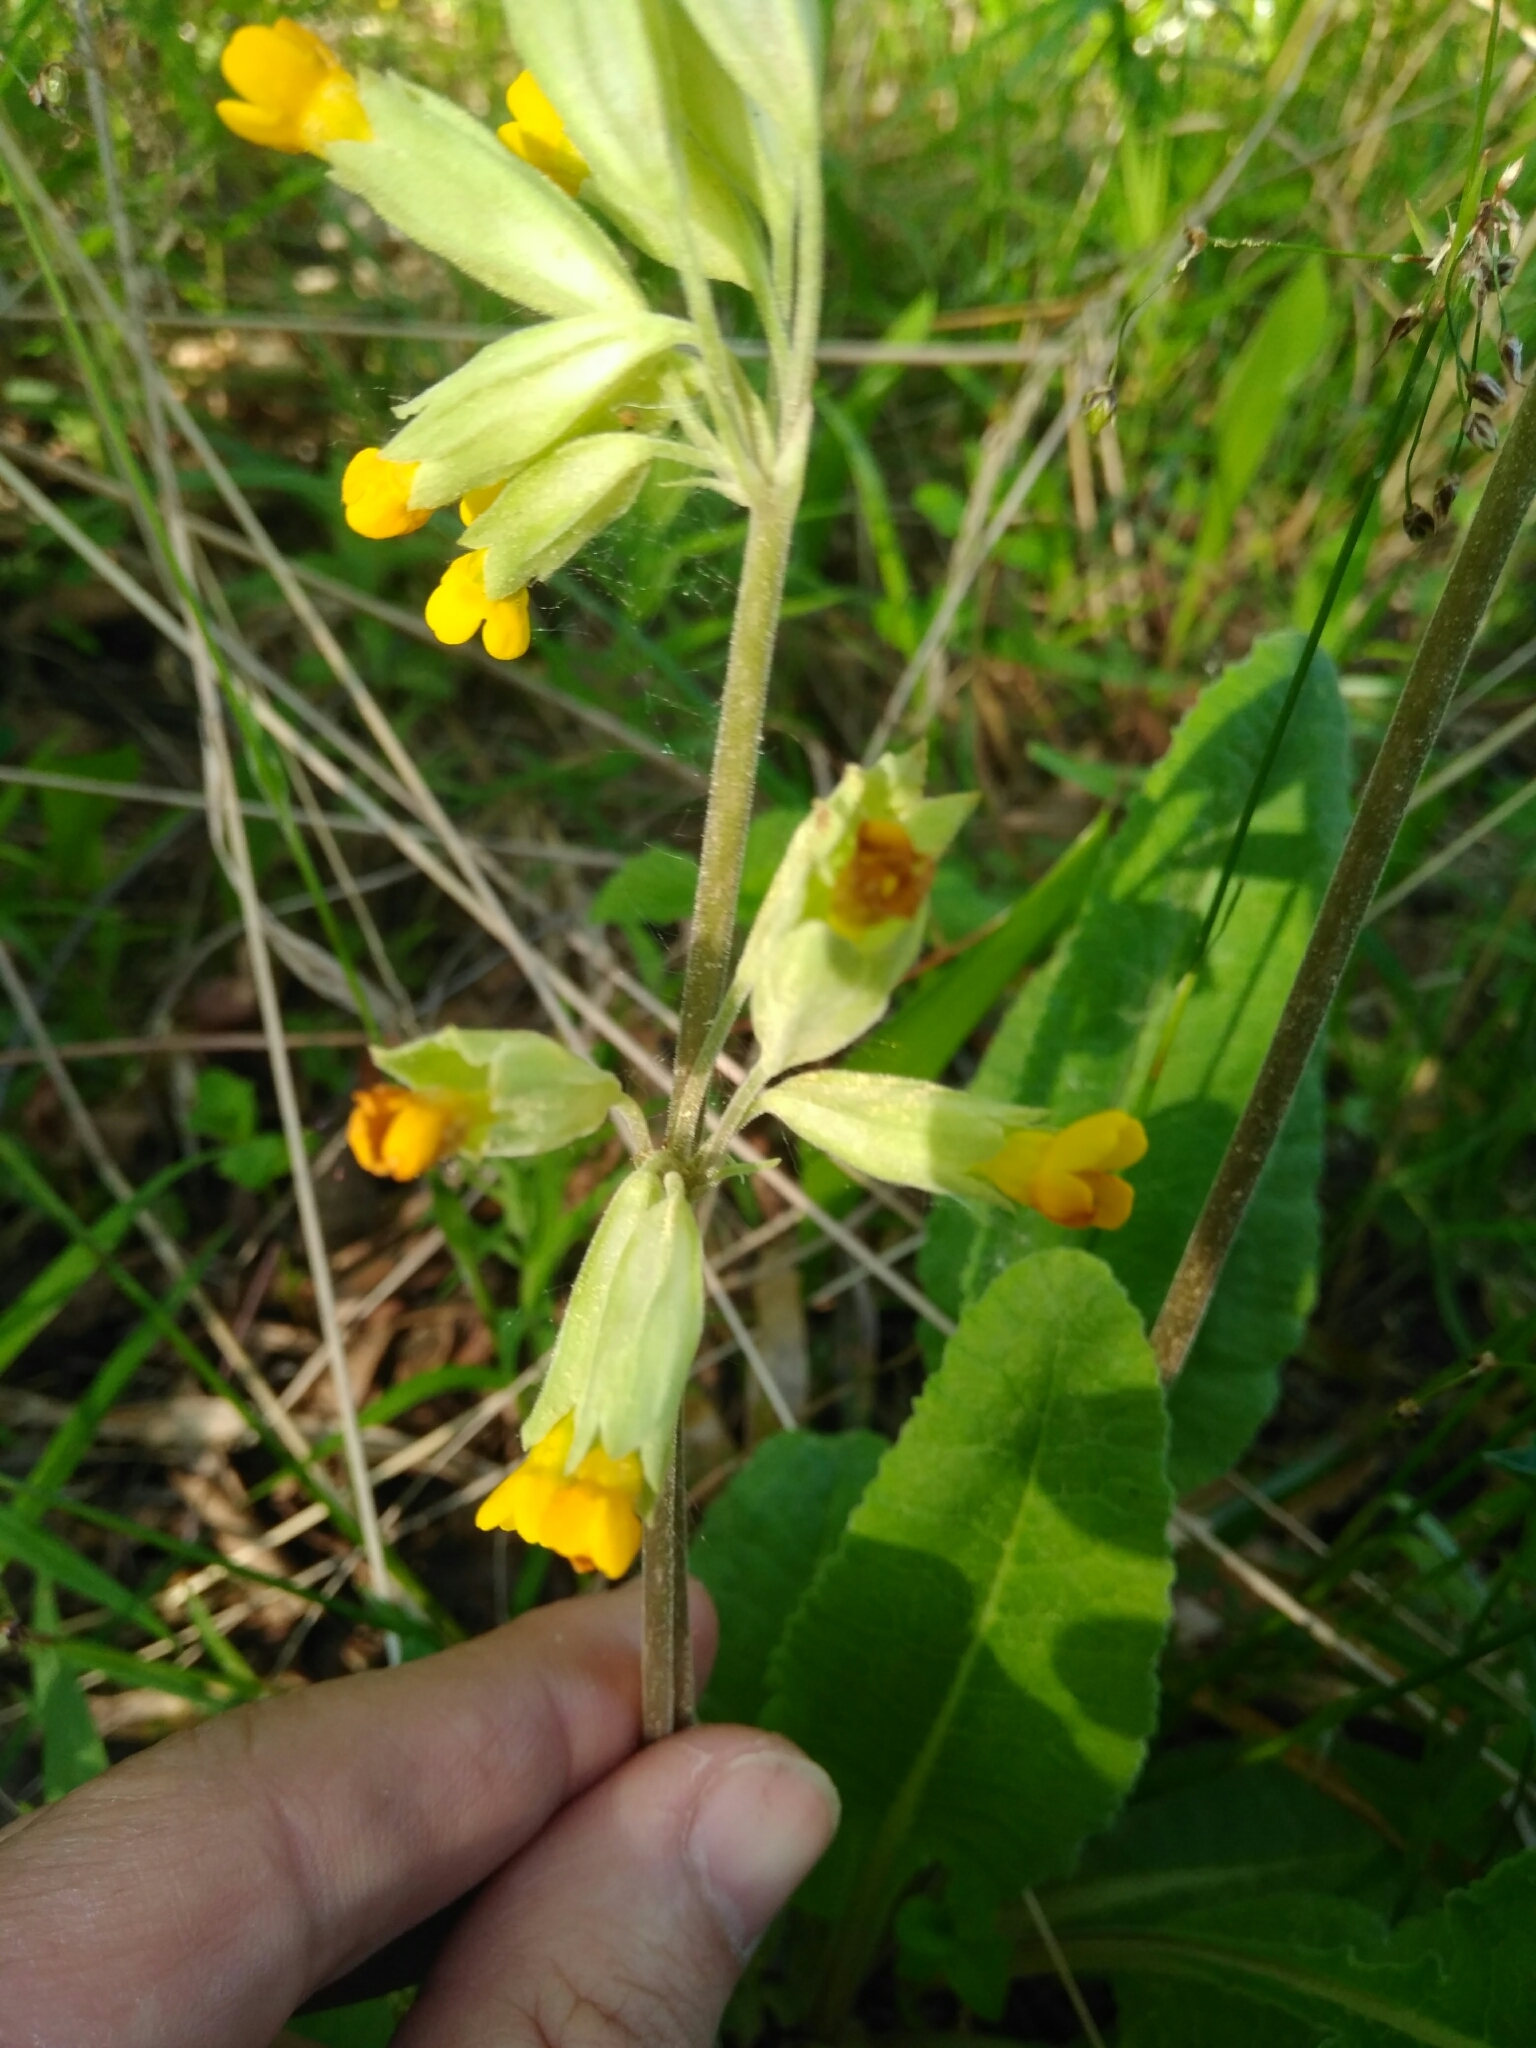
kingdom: Plantae
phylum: Tracheophyta
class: Magnoliopsida
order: Ericales
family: Primulaceae
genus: Primula
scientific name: Primula veris
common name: Cowslip
